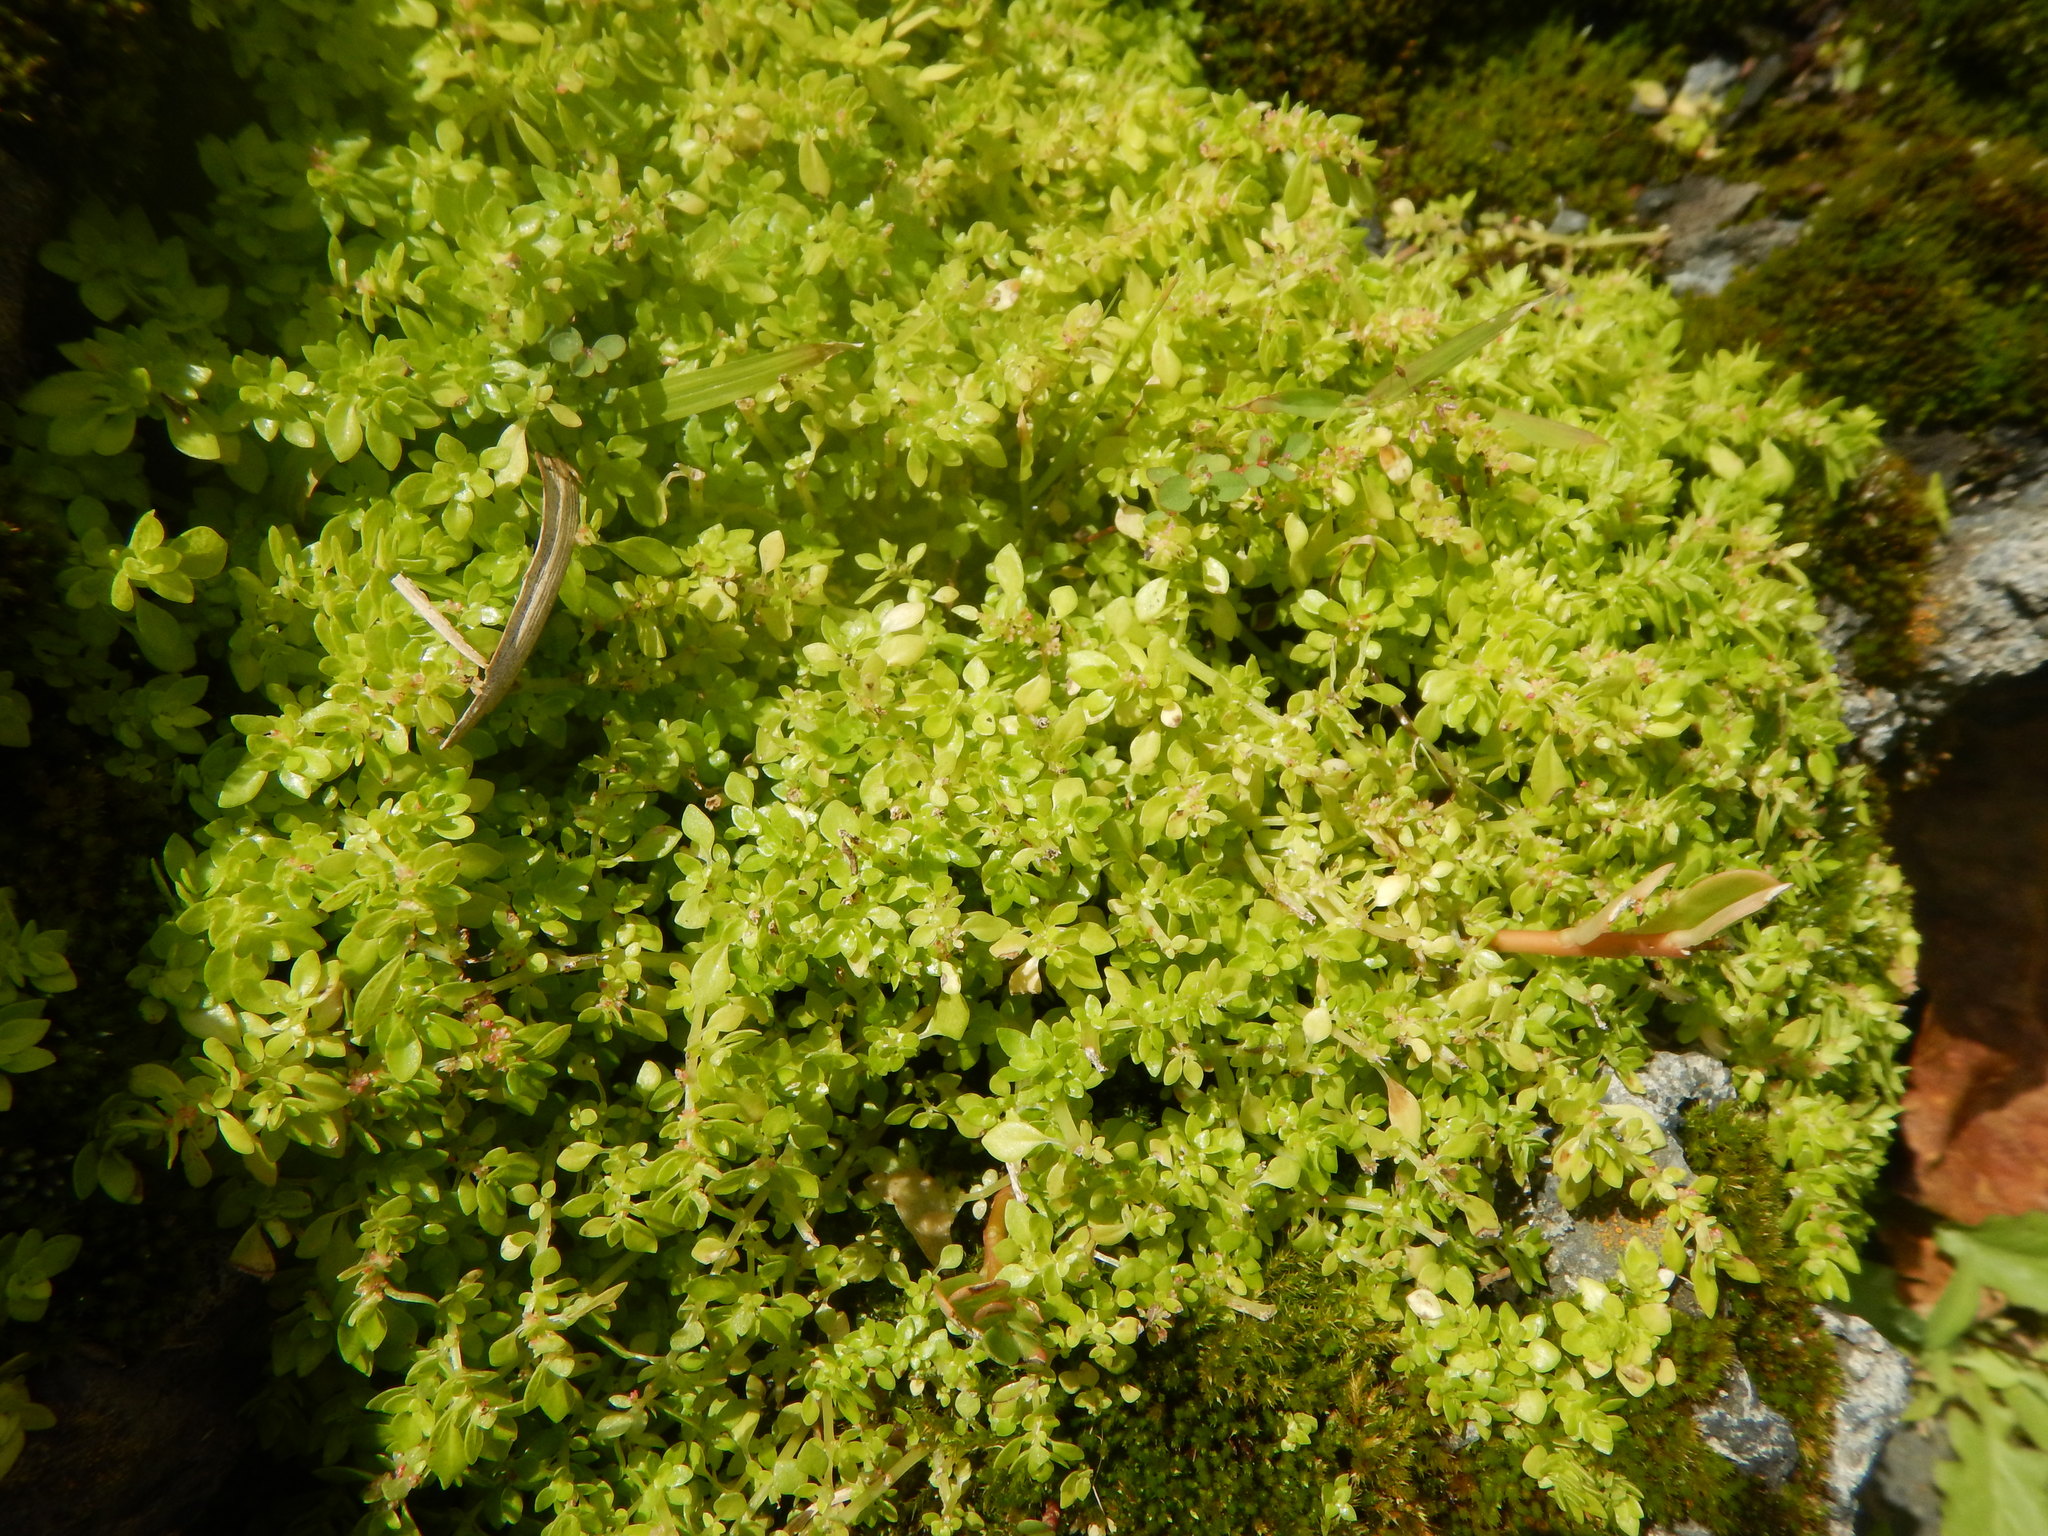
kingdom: Plantae
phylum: Tracheophyta
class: Magnoliopsida
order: Rosales
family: Urticaceae
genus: Pilea
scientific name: Pilea microphylla
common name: Artillery-plant
